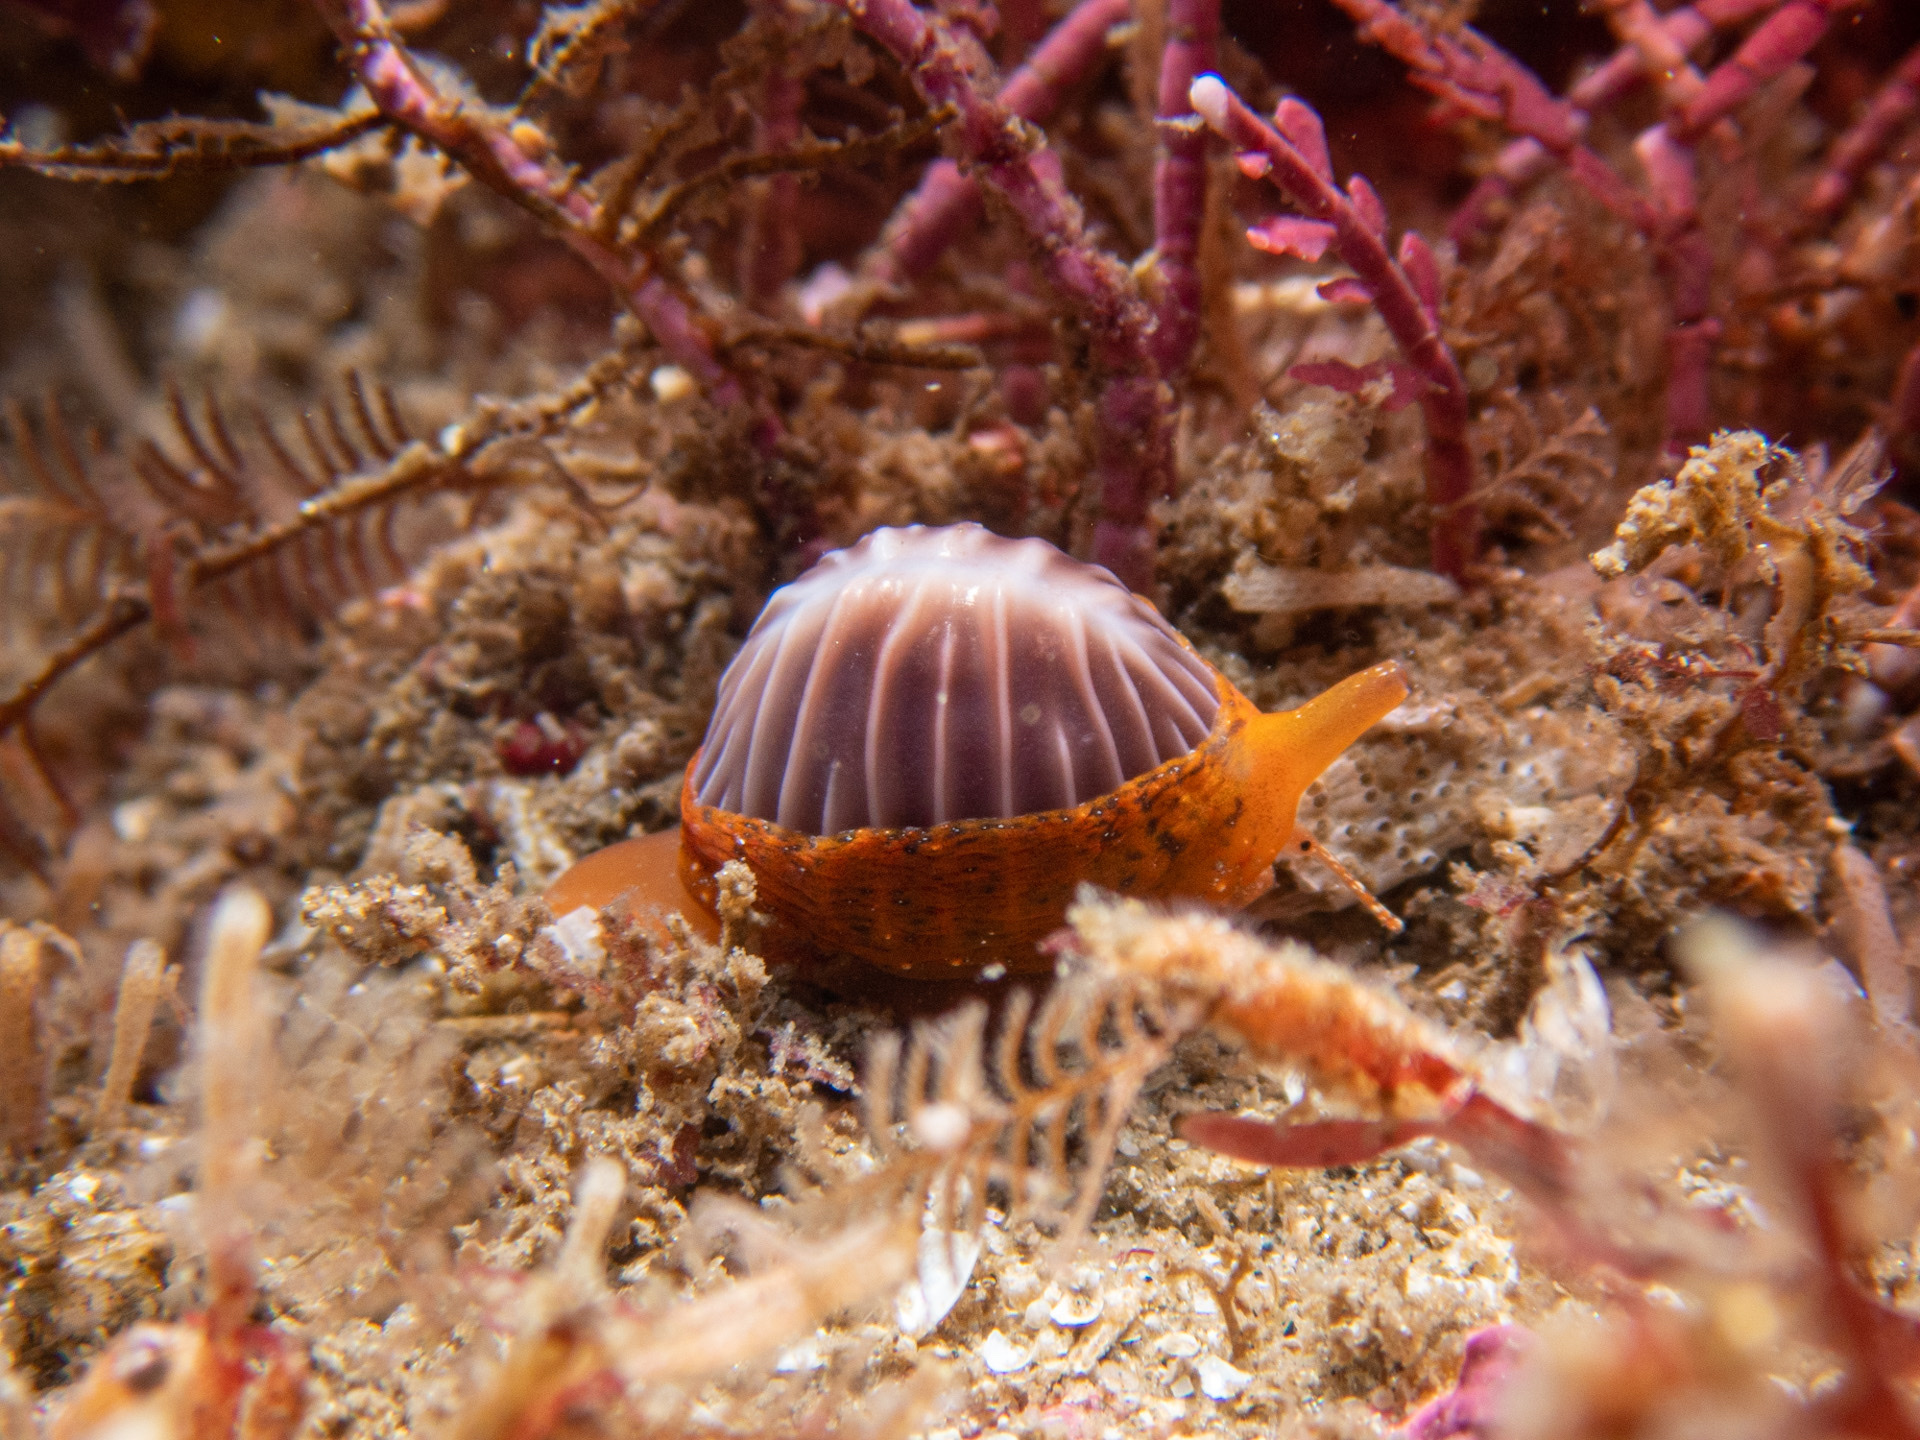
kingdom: Animalia
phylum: Mollusca
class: Gastropoda
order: Littorinimorpha
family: Triviidae
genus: Pseudopusula
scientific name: Pseudopusula californiana
